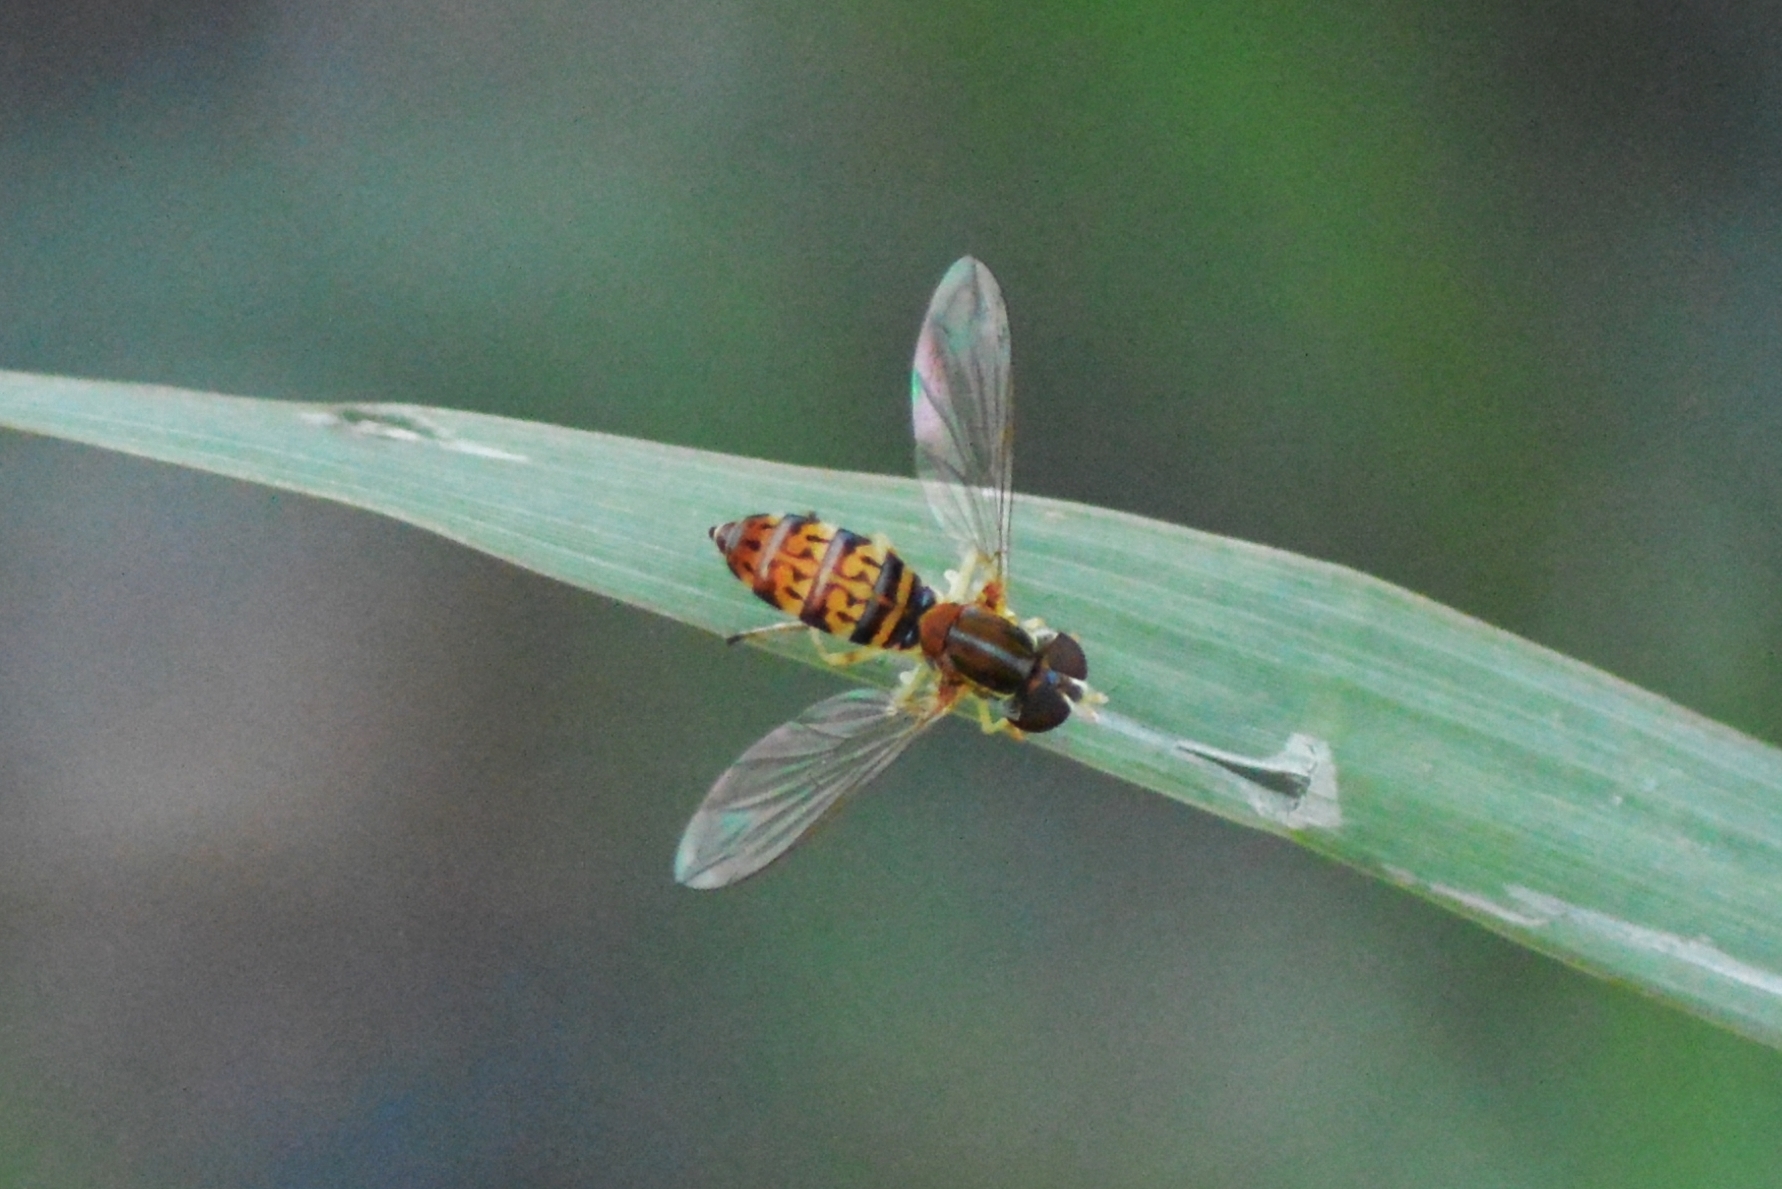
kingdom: Animalia
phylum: Arthropoda
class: Insecta
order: Diptera
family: Syrphidae
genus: Toxomerus
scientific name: Toxomerus
